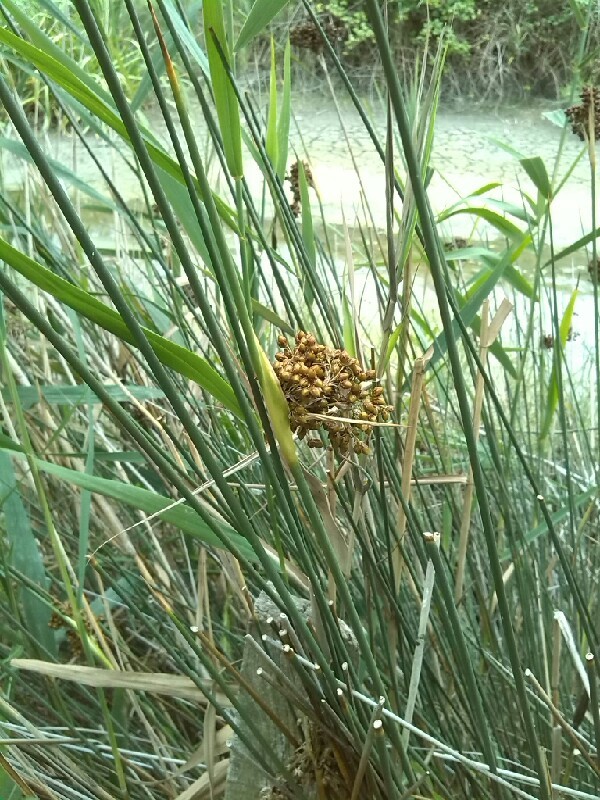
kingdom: Plantae
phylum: Tracheophyta
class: Liliopsida
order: Poales
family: Juncaceae
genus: Juncus
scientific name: Juncus acutus
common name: Sharp rush
